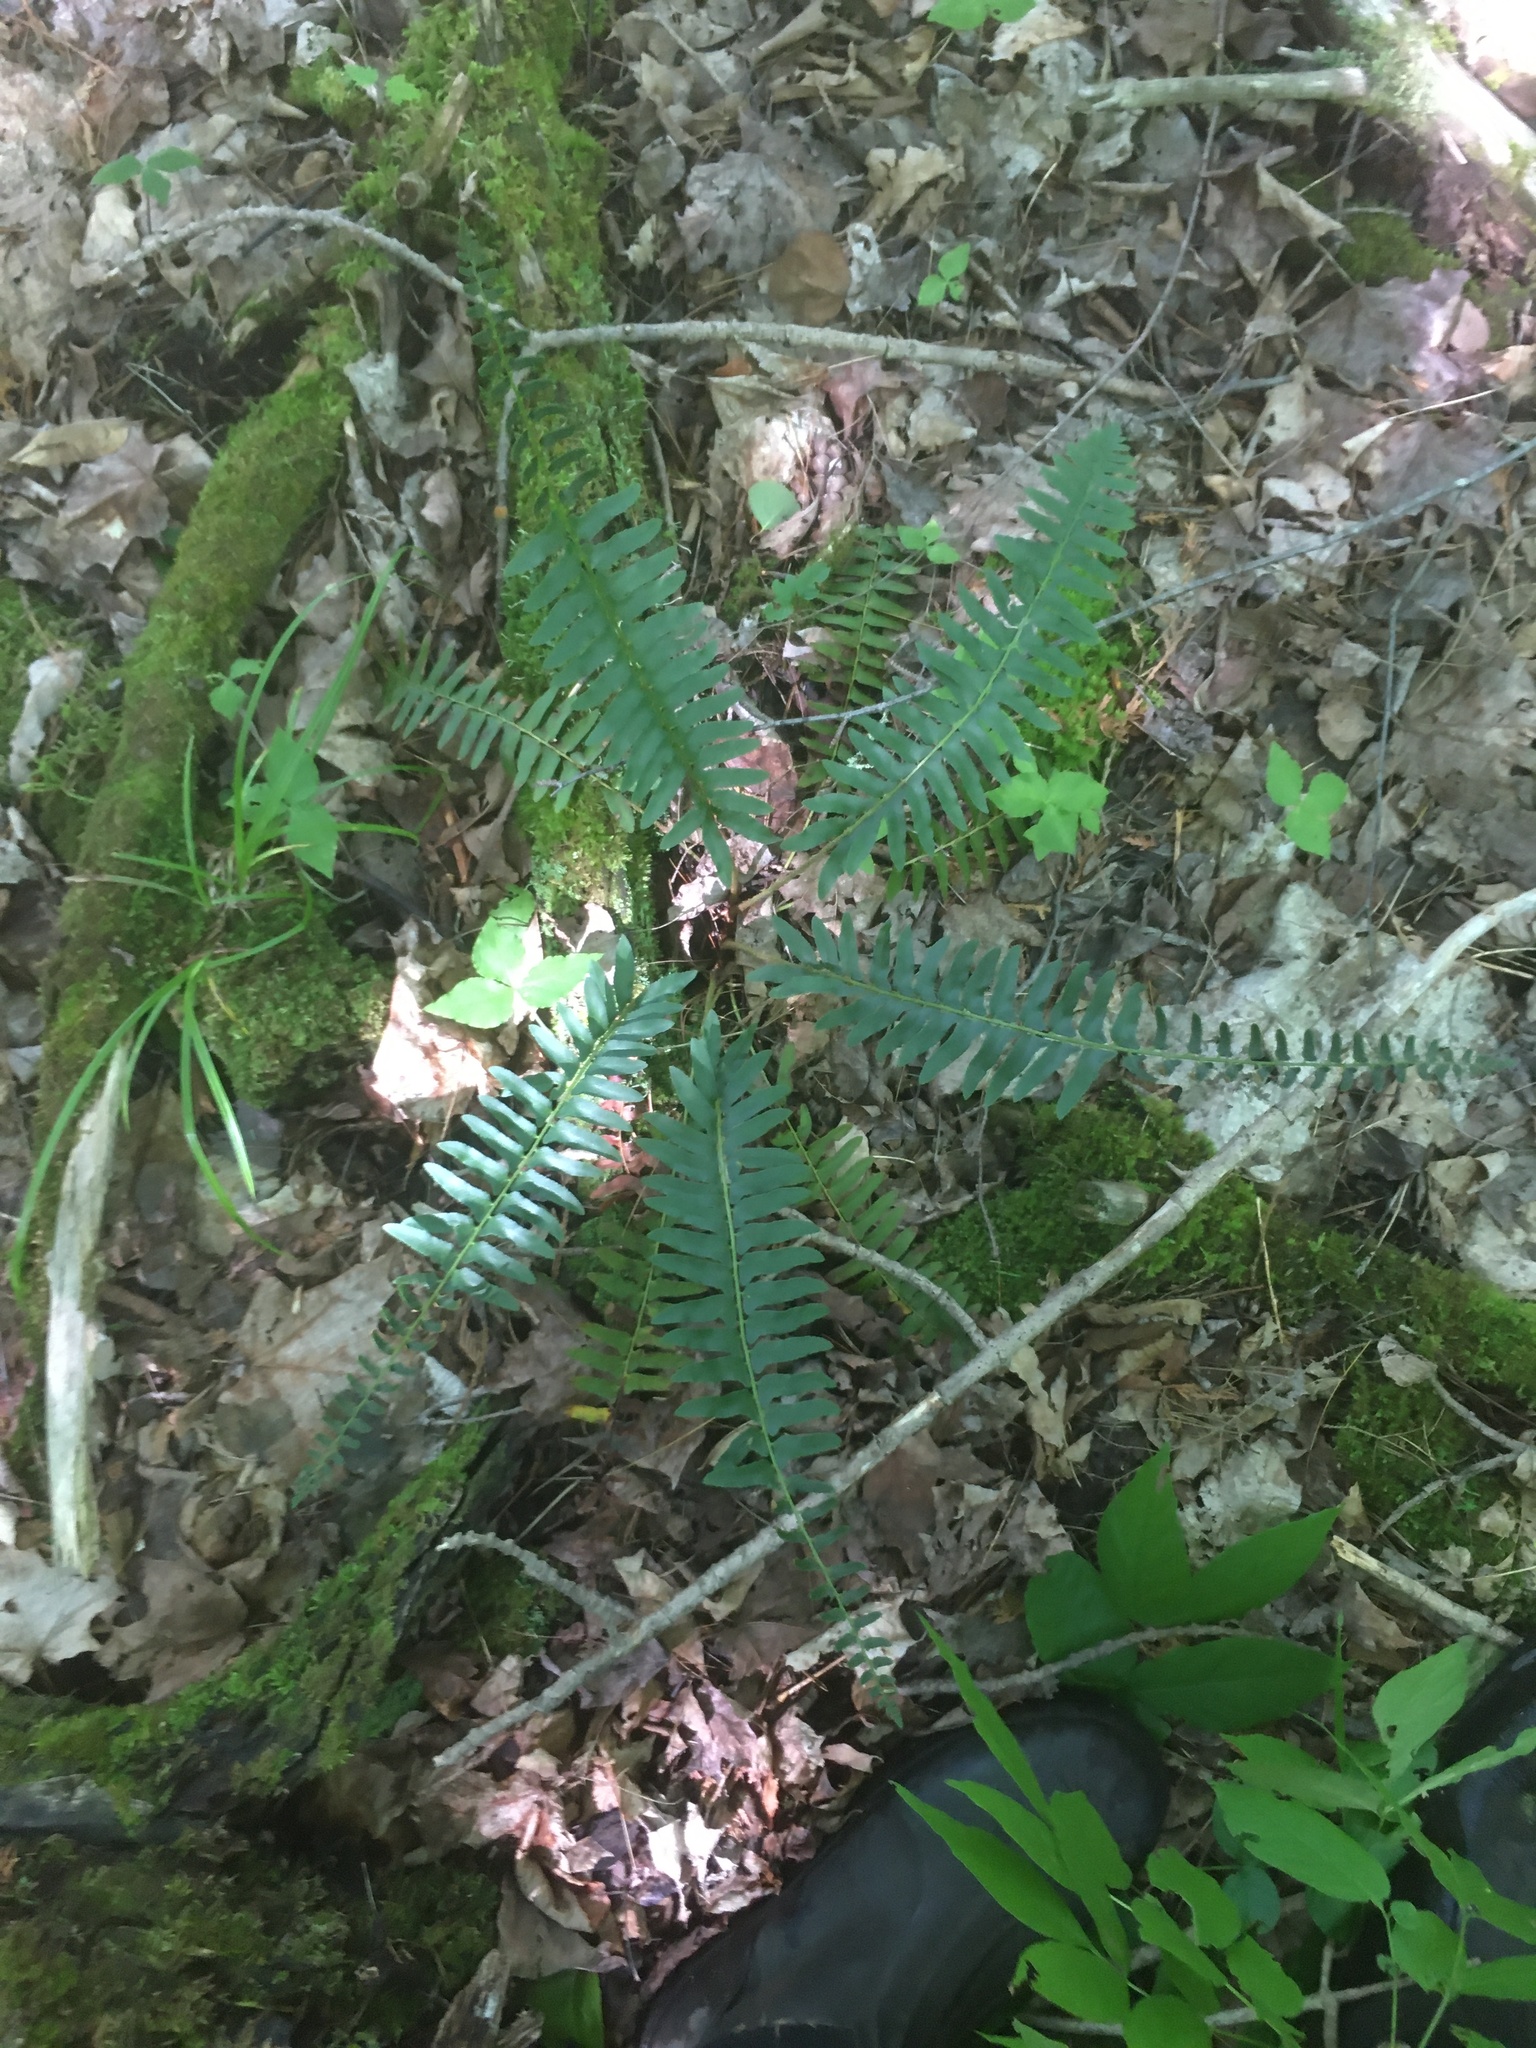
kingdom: Plantae
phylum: Tracheophyta
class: Polypodiopsida
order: Polypodiales
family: Dryopteridaceae
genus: Polystichum
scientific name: Polystichum acrostichoides
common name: Christmas fern
